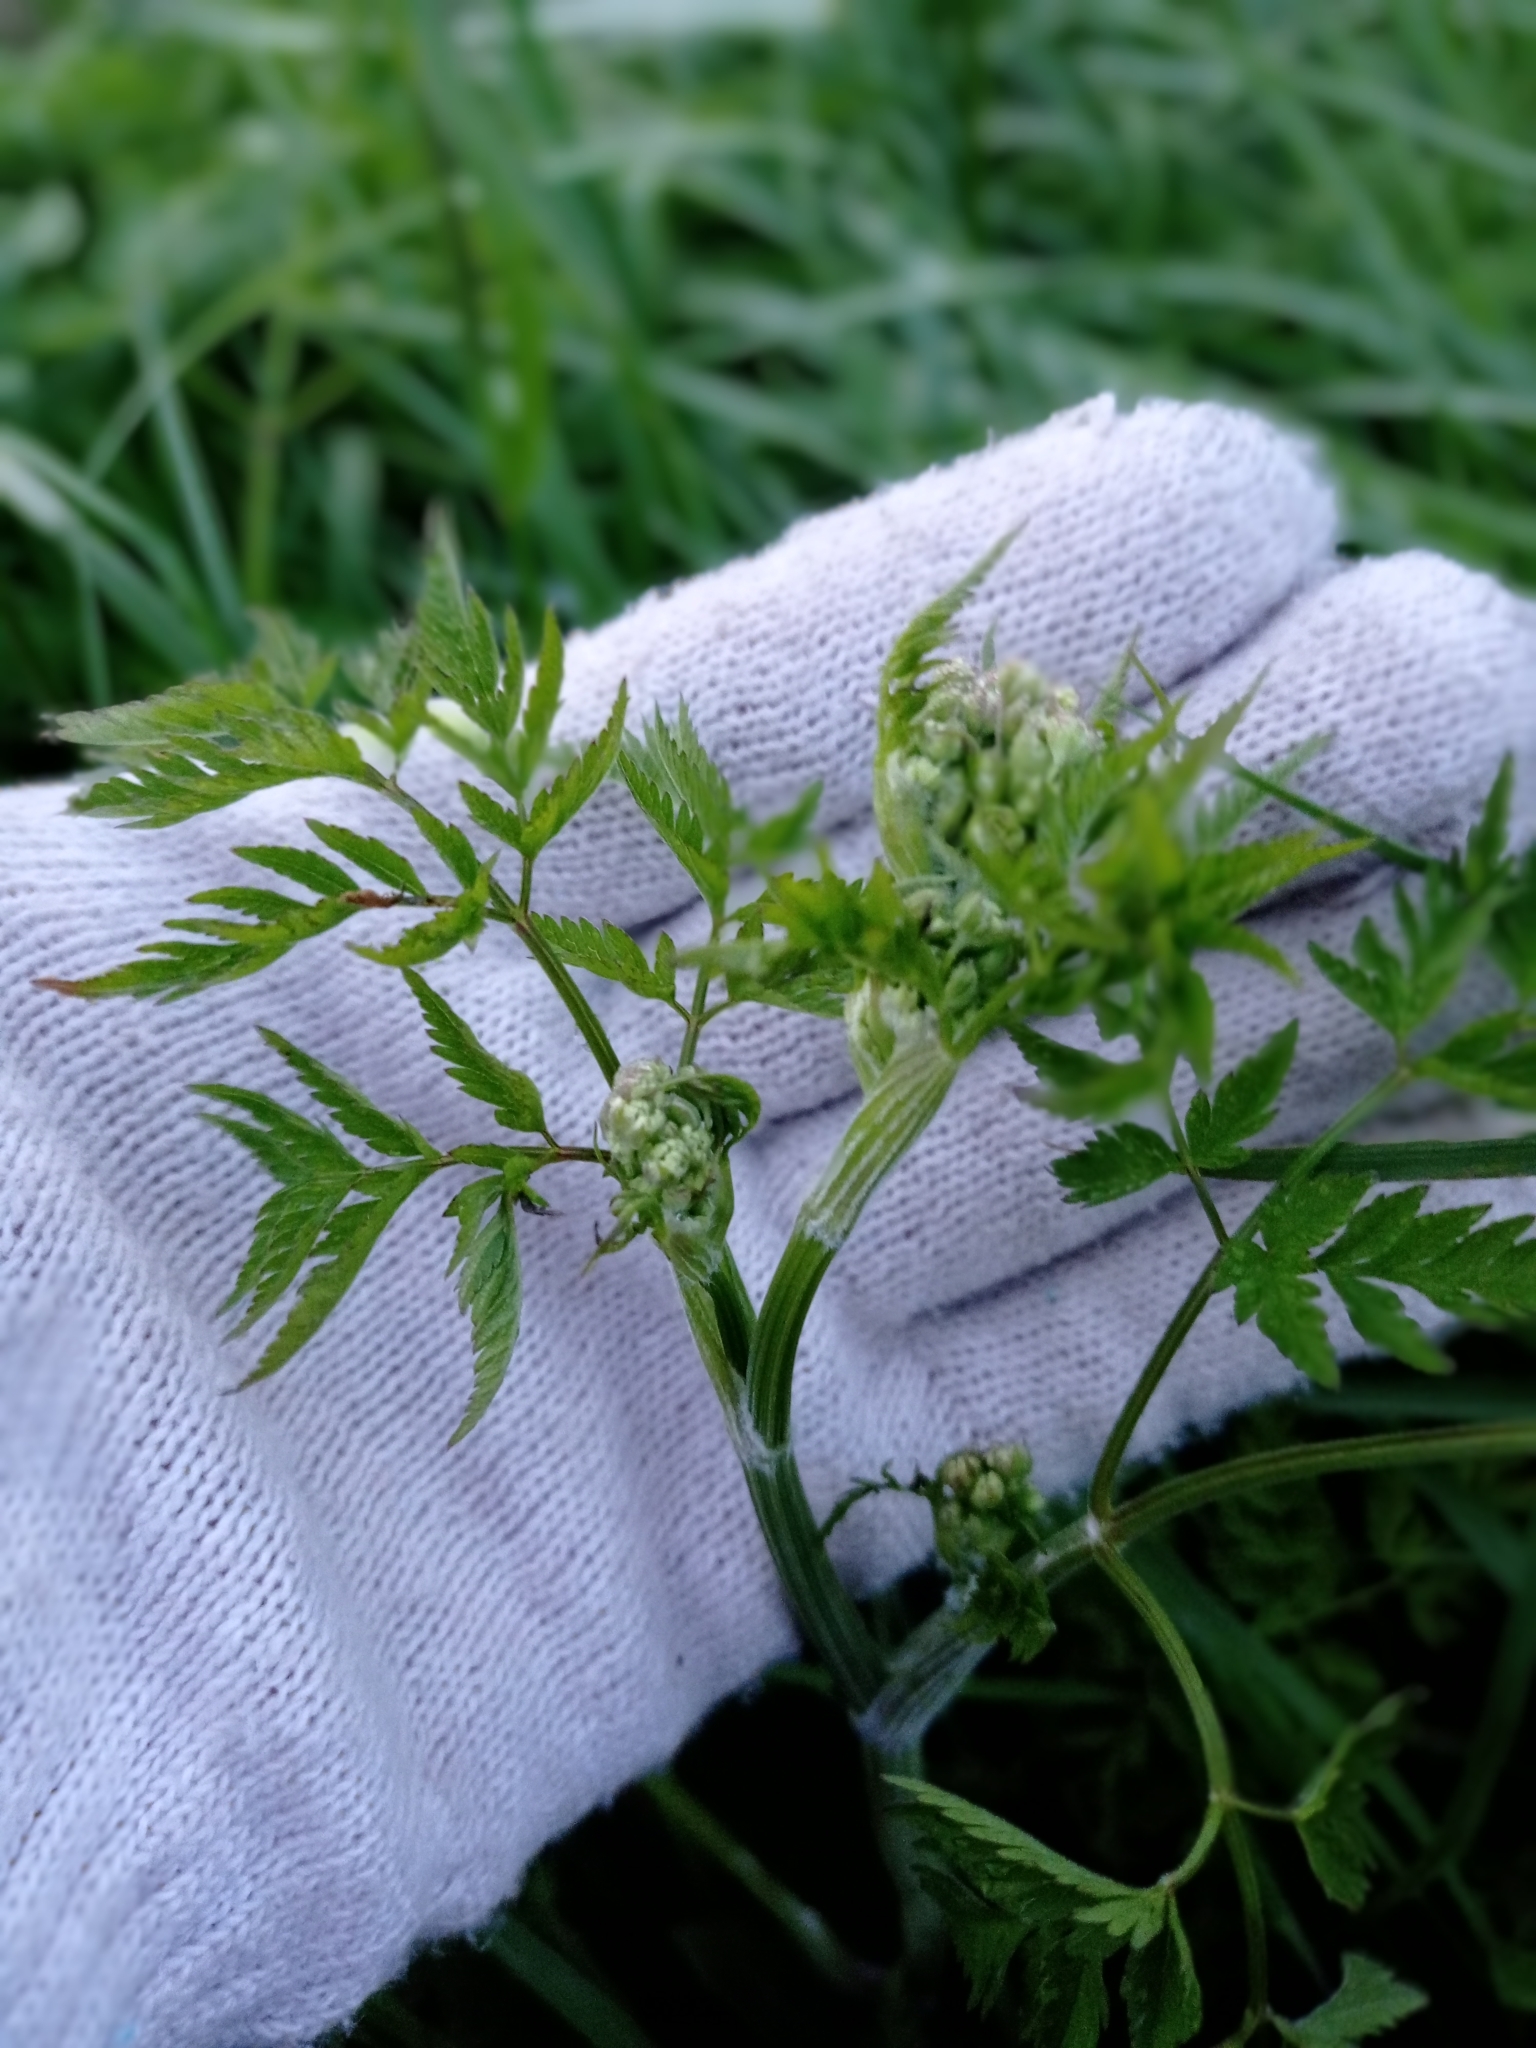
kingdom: Plantae
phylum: Tracheophyta
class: Magnoliopsida
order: Apiales
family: Apiaceae
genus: Anthriscus
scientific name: Anthriscus sylvestris
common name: Cow parsley
